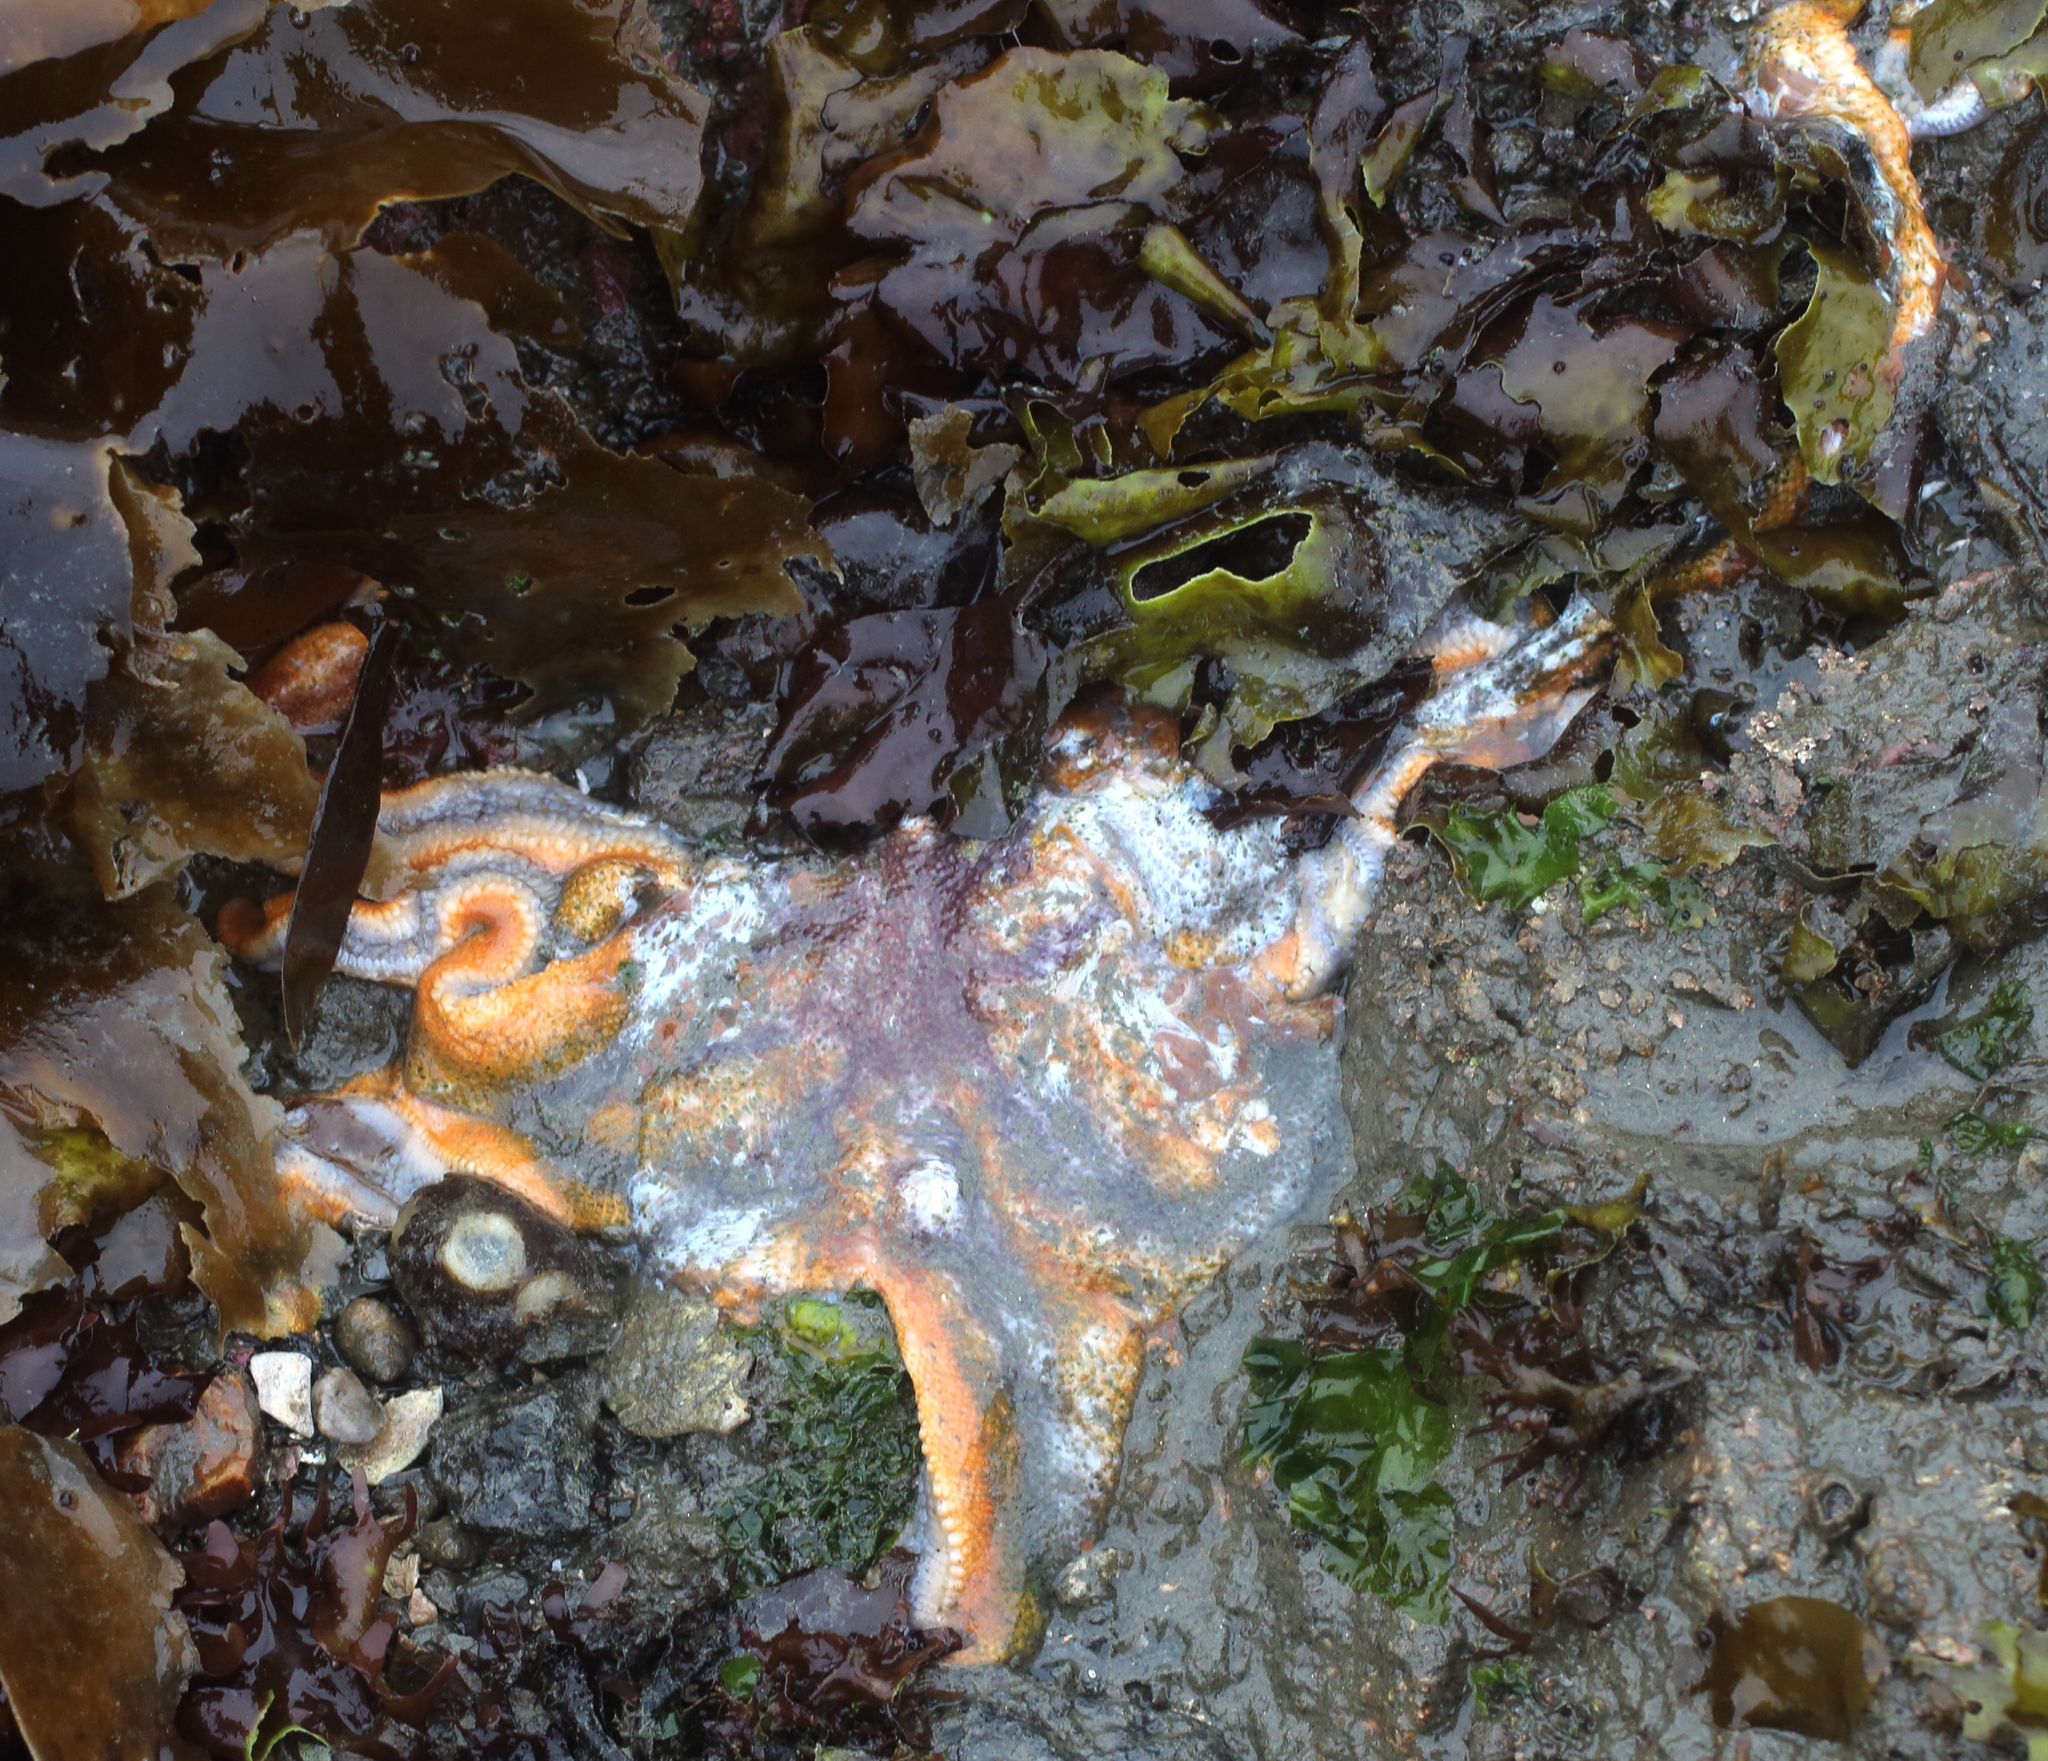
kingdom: Animalia
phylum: Echinodermata
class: Asteroidea
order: Valvatida
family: Solasteridae
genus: Solaster
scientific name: Solaster stimpsoni
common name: Orange sun star
